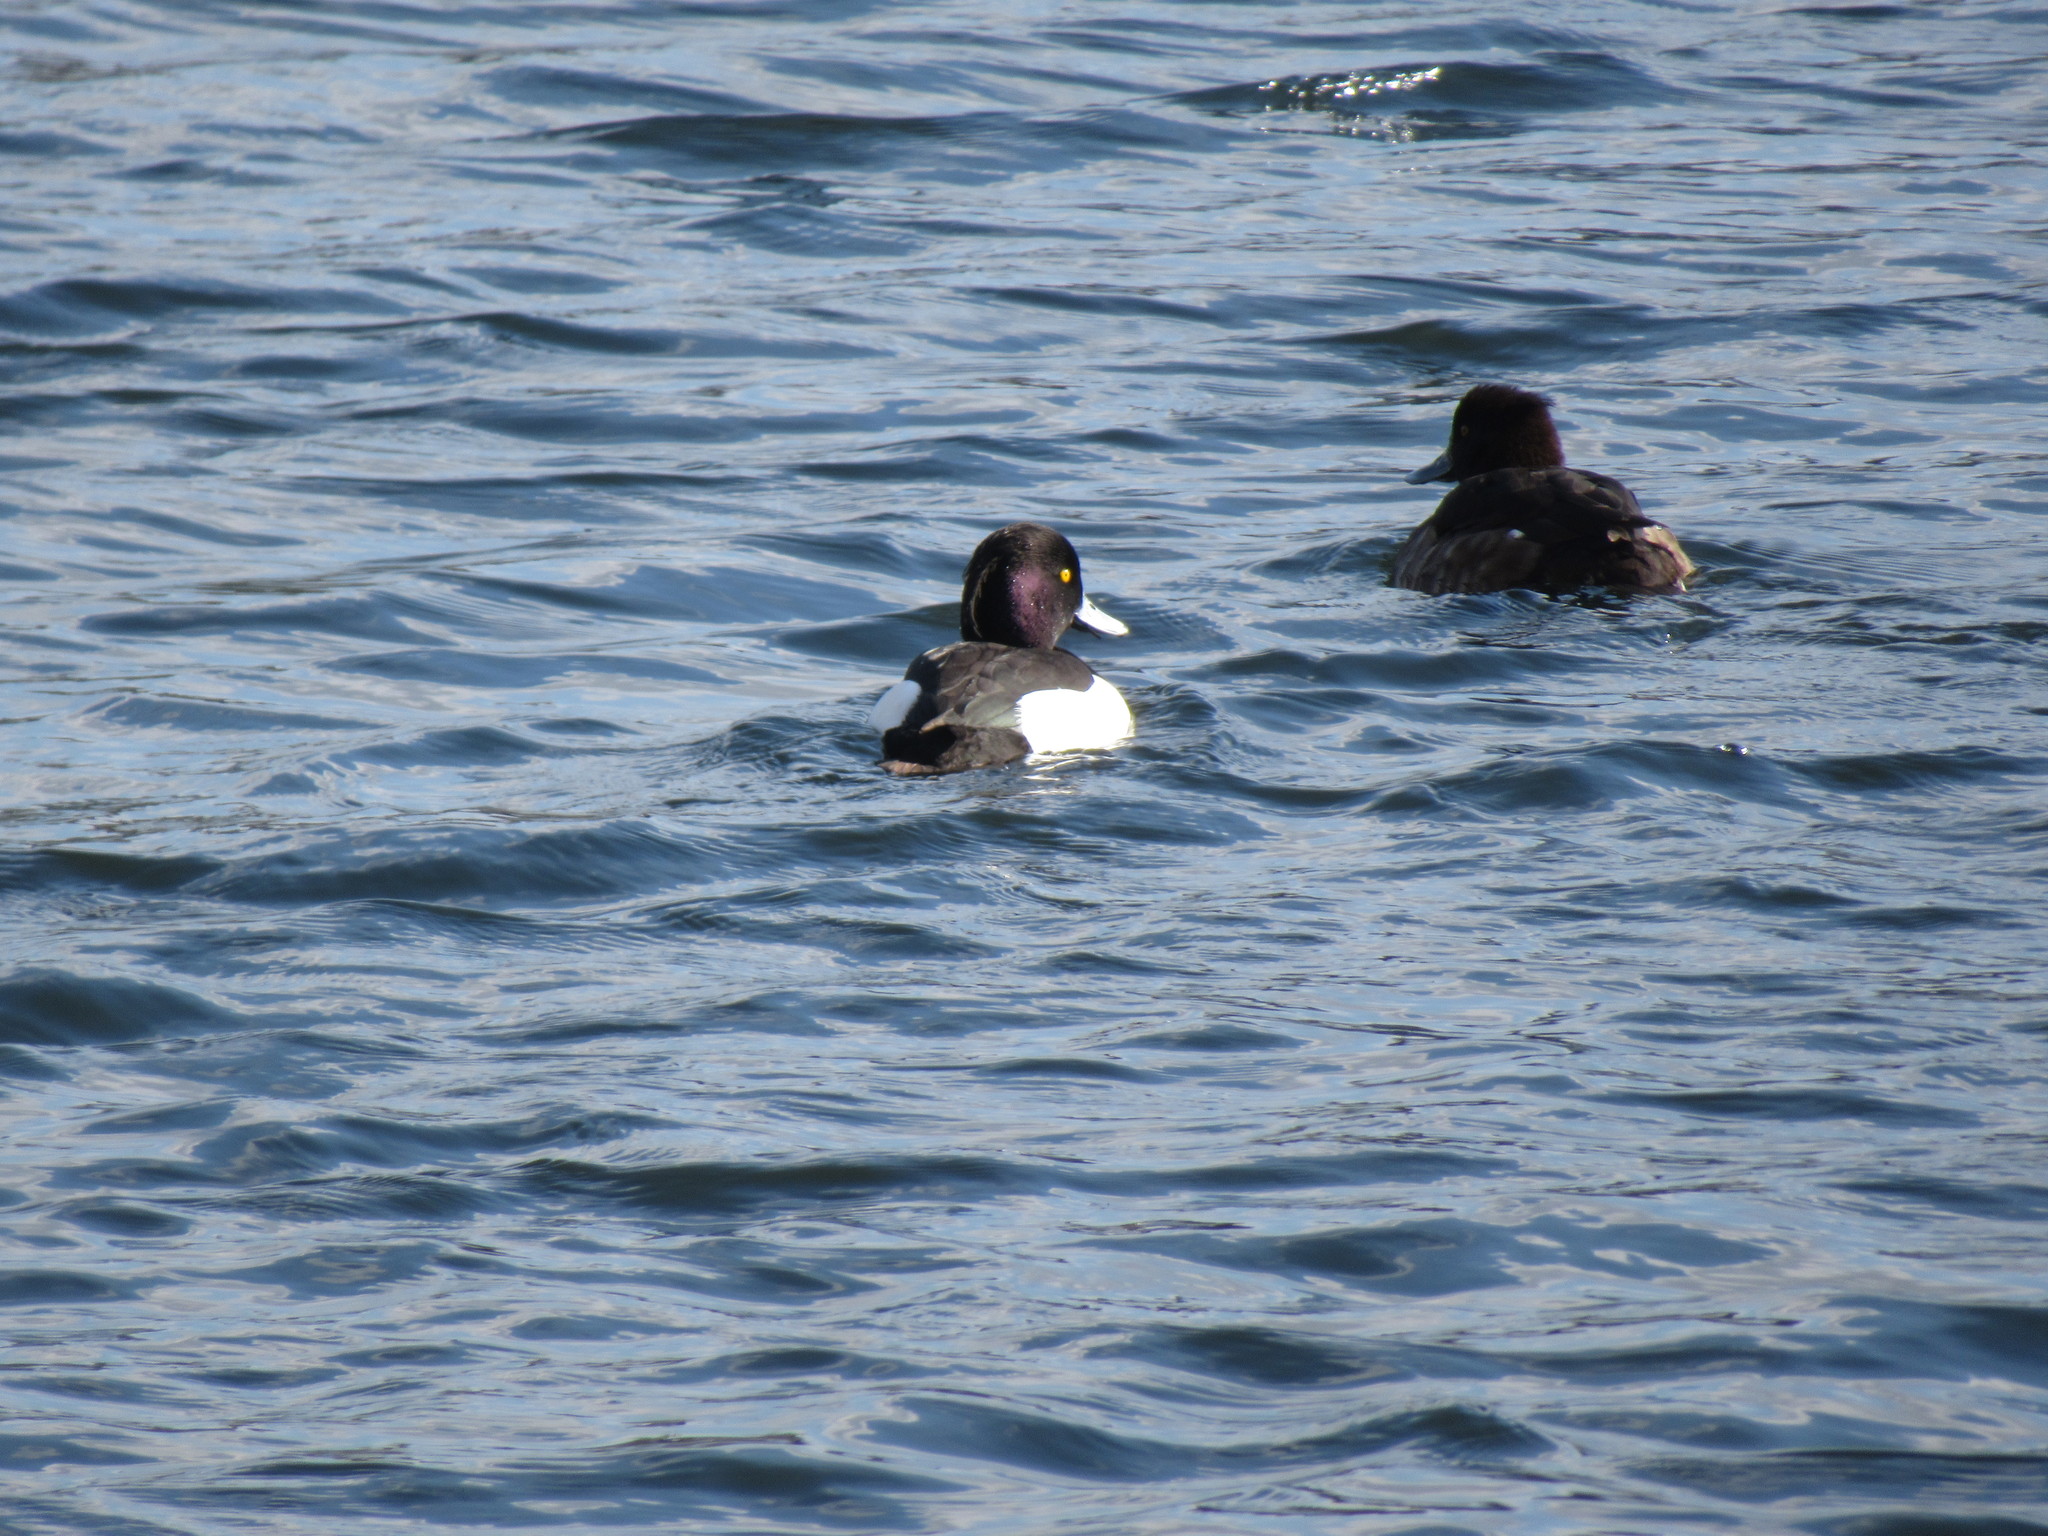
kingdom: Animalia
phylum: Chordata
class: Aves
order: Anseriformes
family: Anatidae
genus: Aythya
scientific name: Aythya fuligula
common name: Tufted duck
